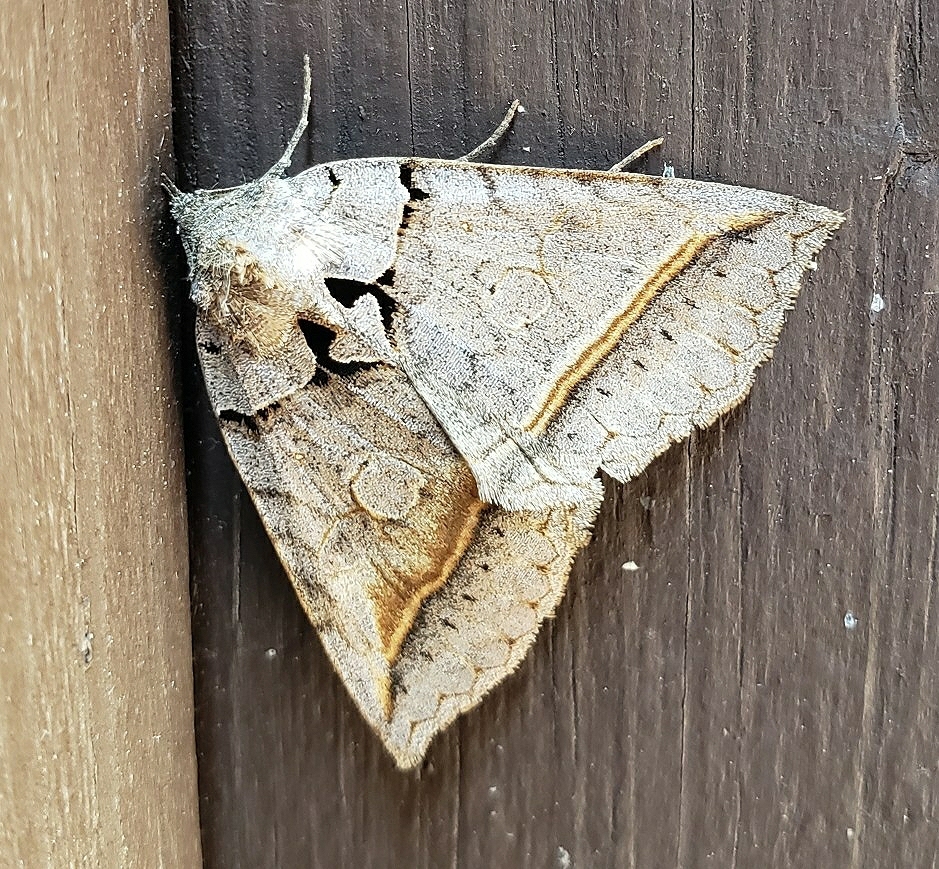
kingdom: Animalia
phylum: Arthropoda
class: Insecta
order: Lepidoptera
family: Erebidae
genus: Celiptera
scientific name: Celiptera frustulum
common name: Black bit moth
